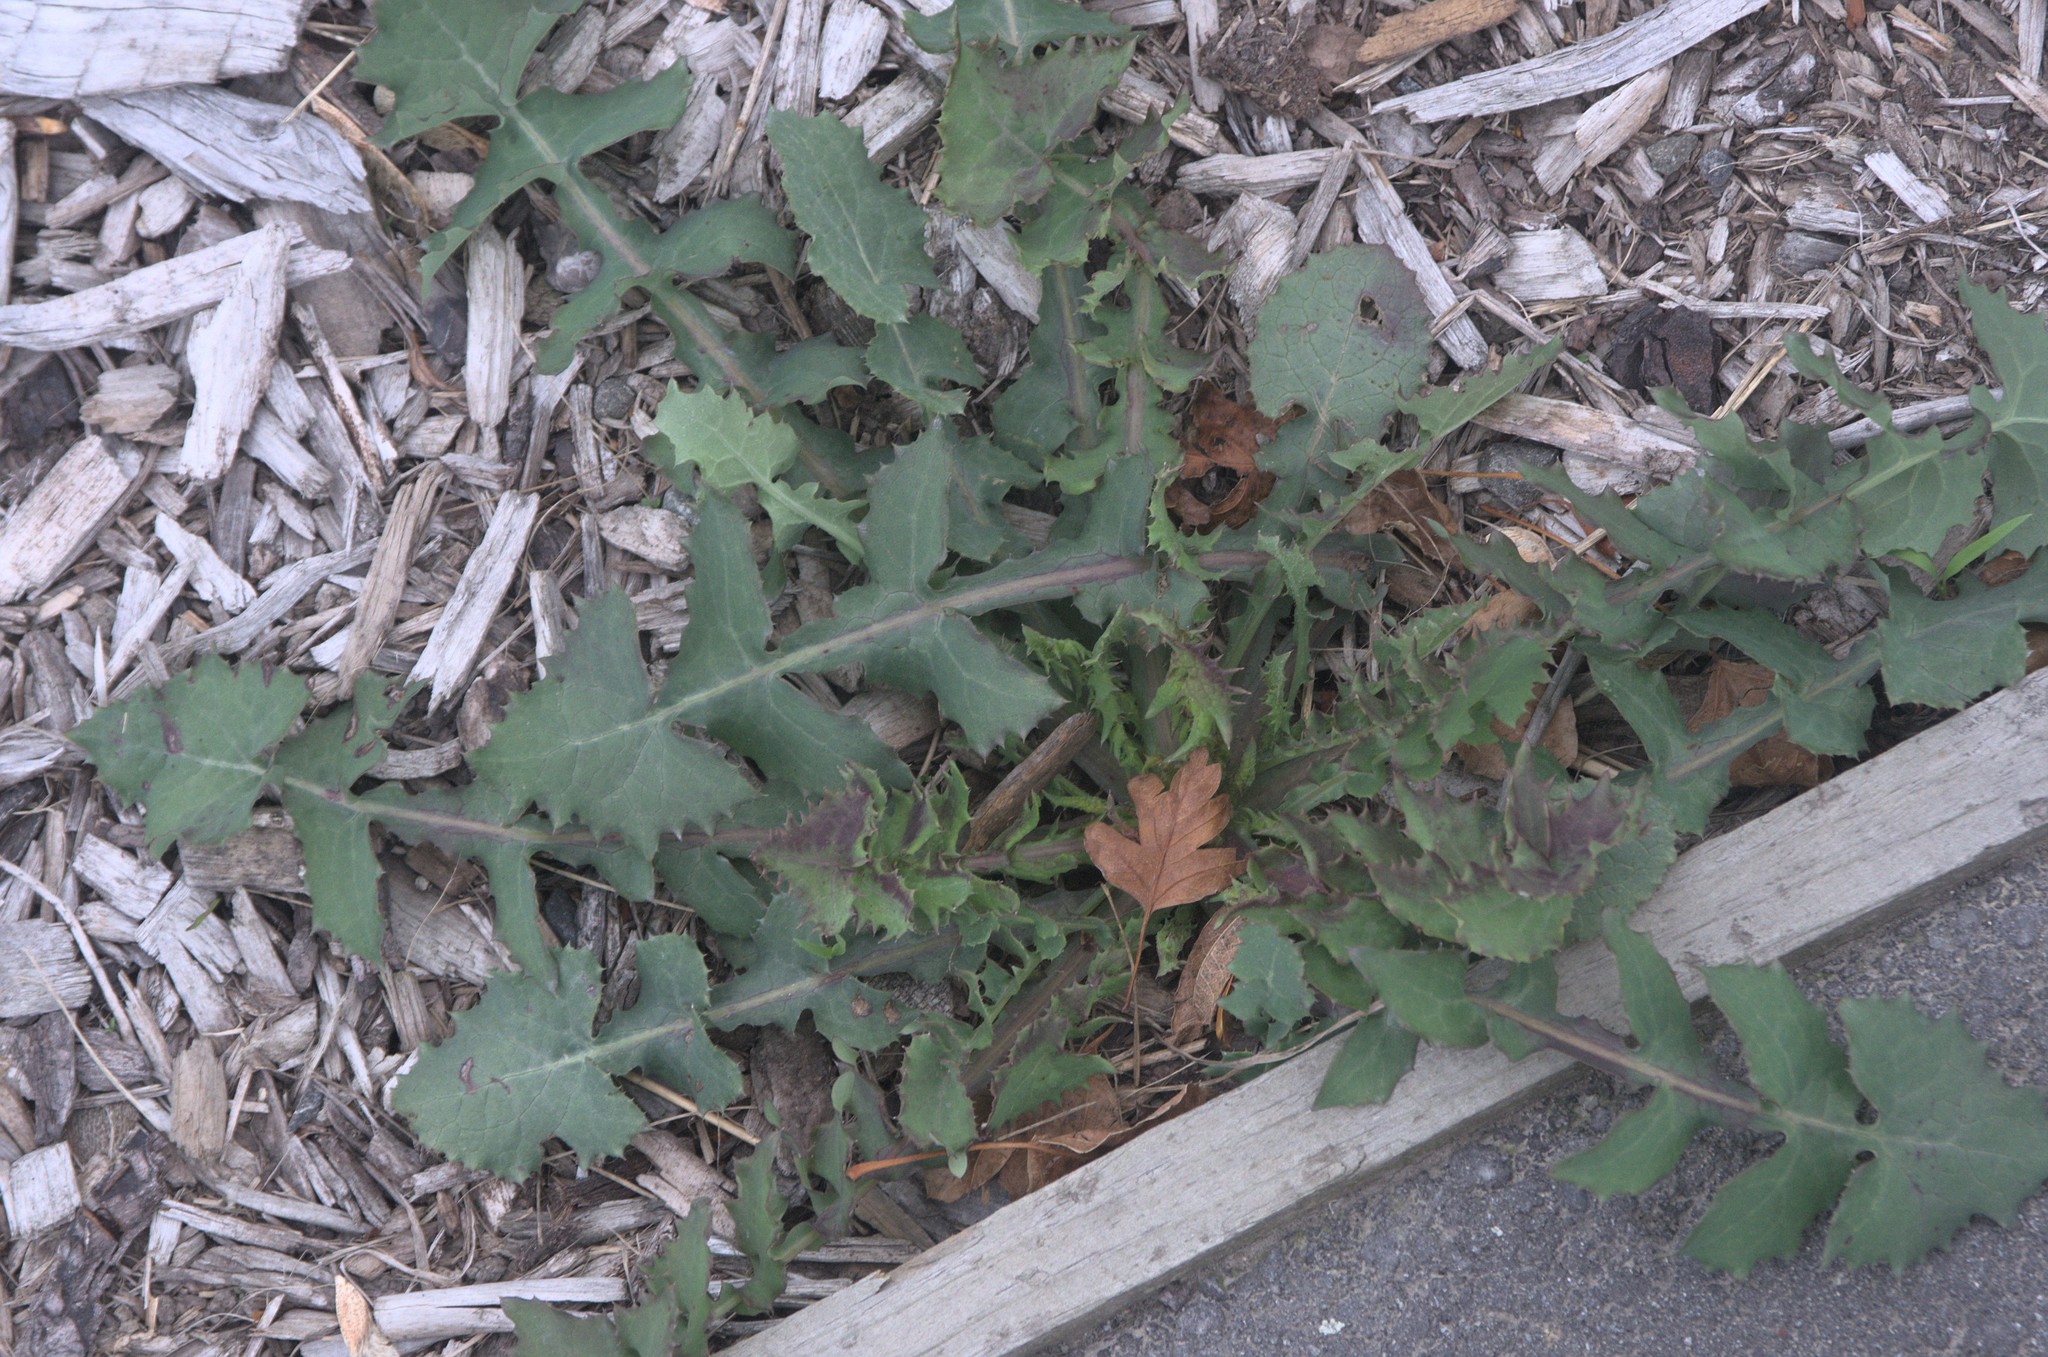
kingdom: Plantae
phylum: Tracheophyta
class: Magnoliopsida
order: Asterales
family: Asteraceae
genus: Sonchus
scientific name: Sonchus oleraceus
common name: Common sowthistle
